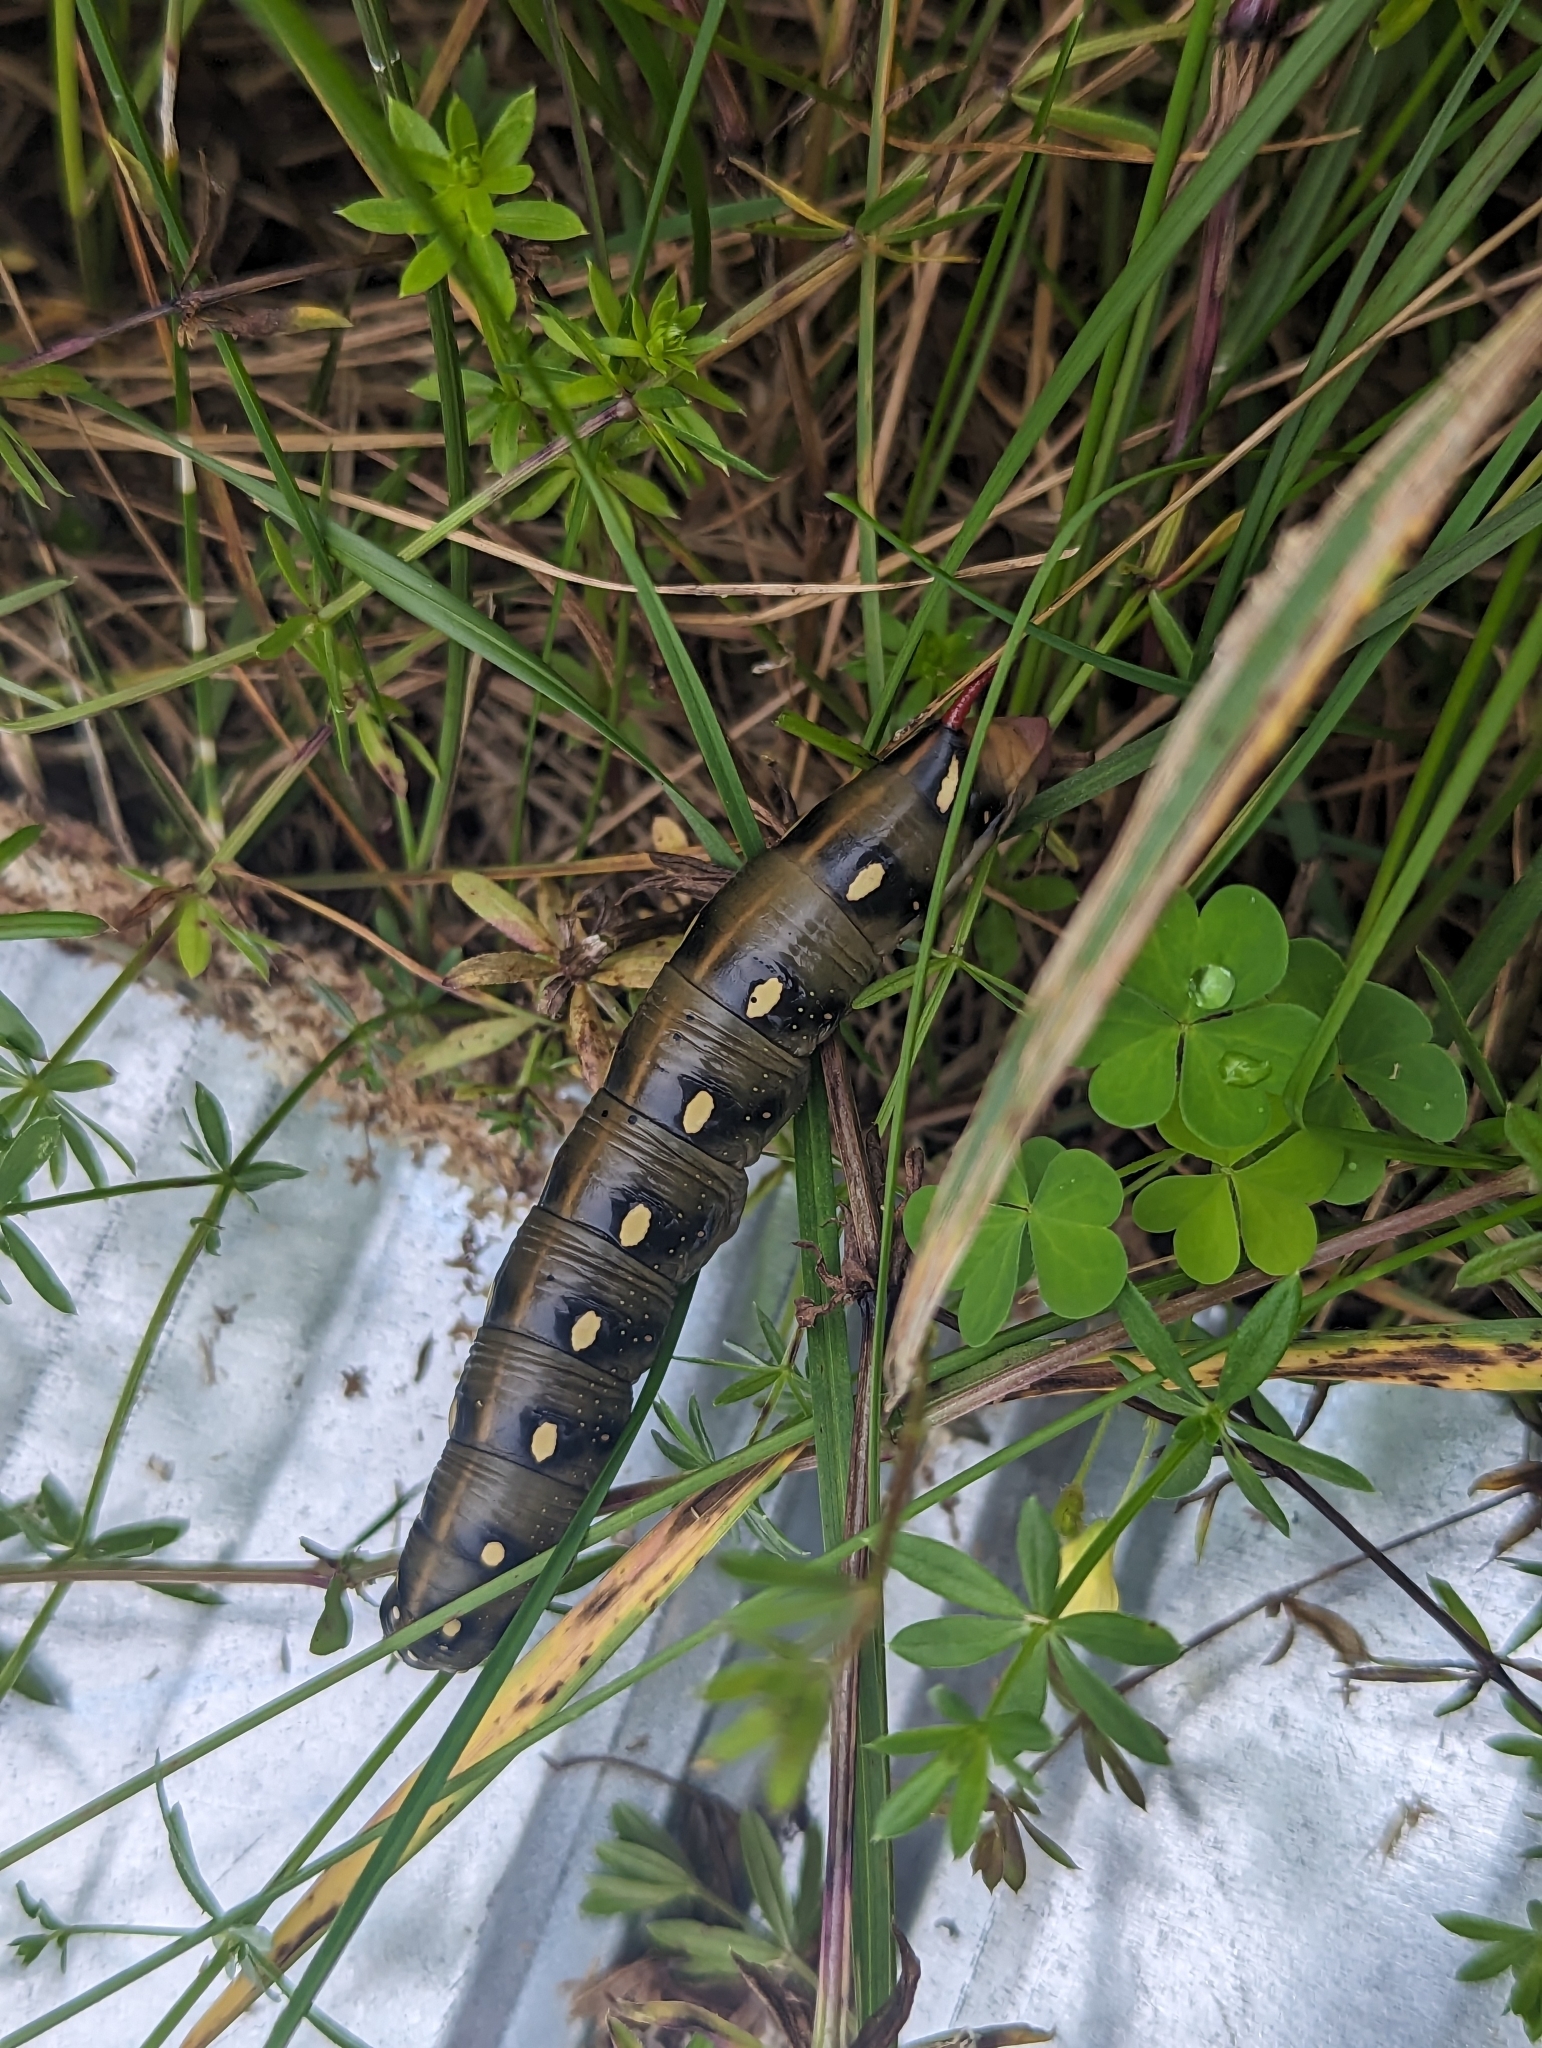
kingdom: Animalia
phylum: Arthropoda
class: Insecta
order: Lepidoptera
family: Sphingidae
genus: Hyles
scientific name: Hyles gallii
